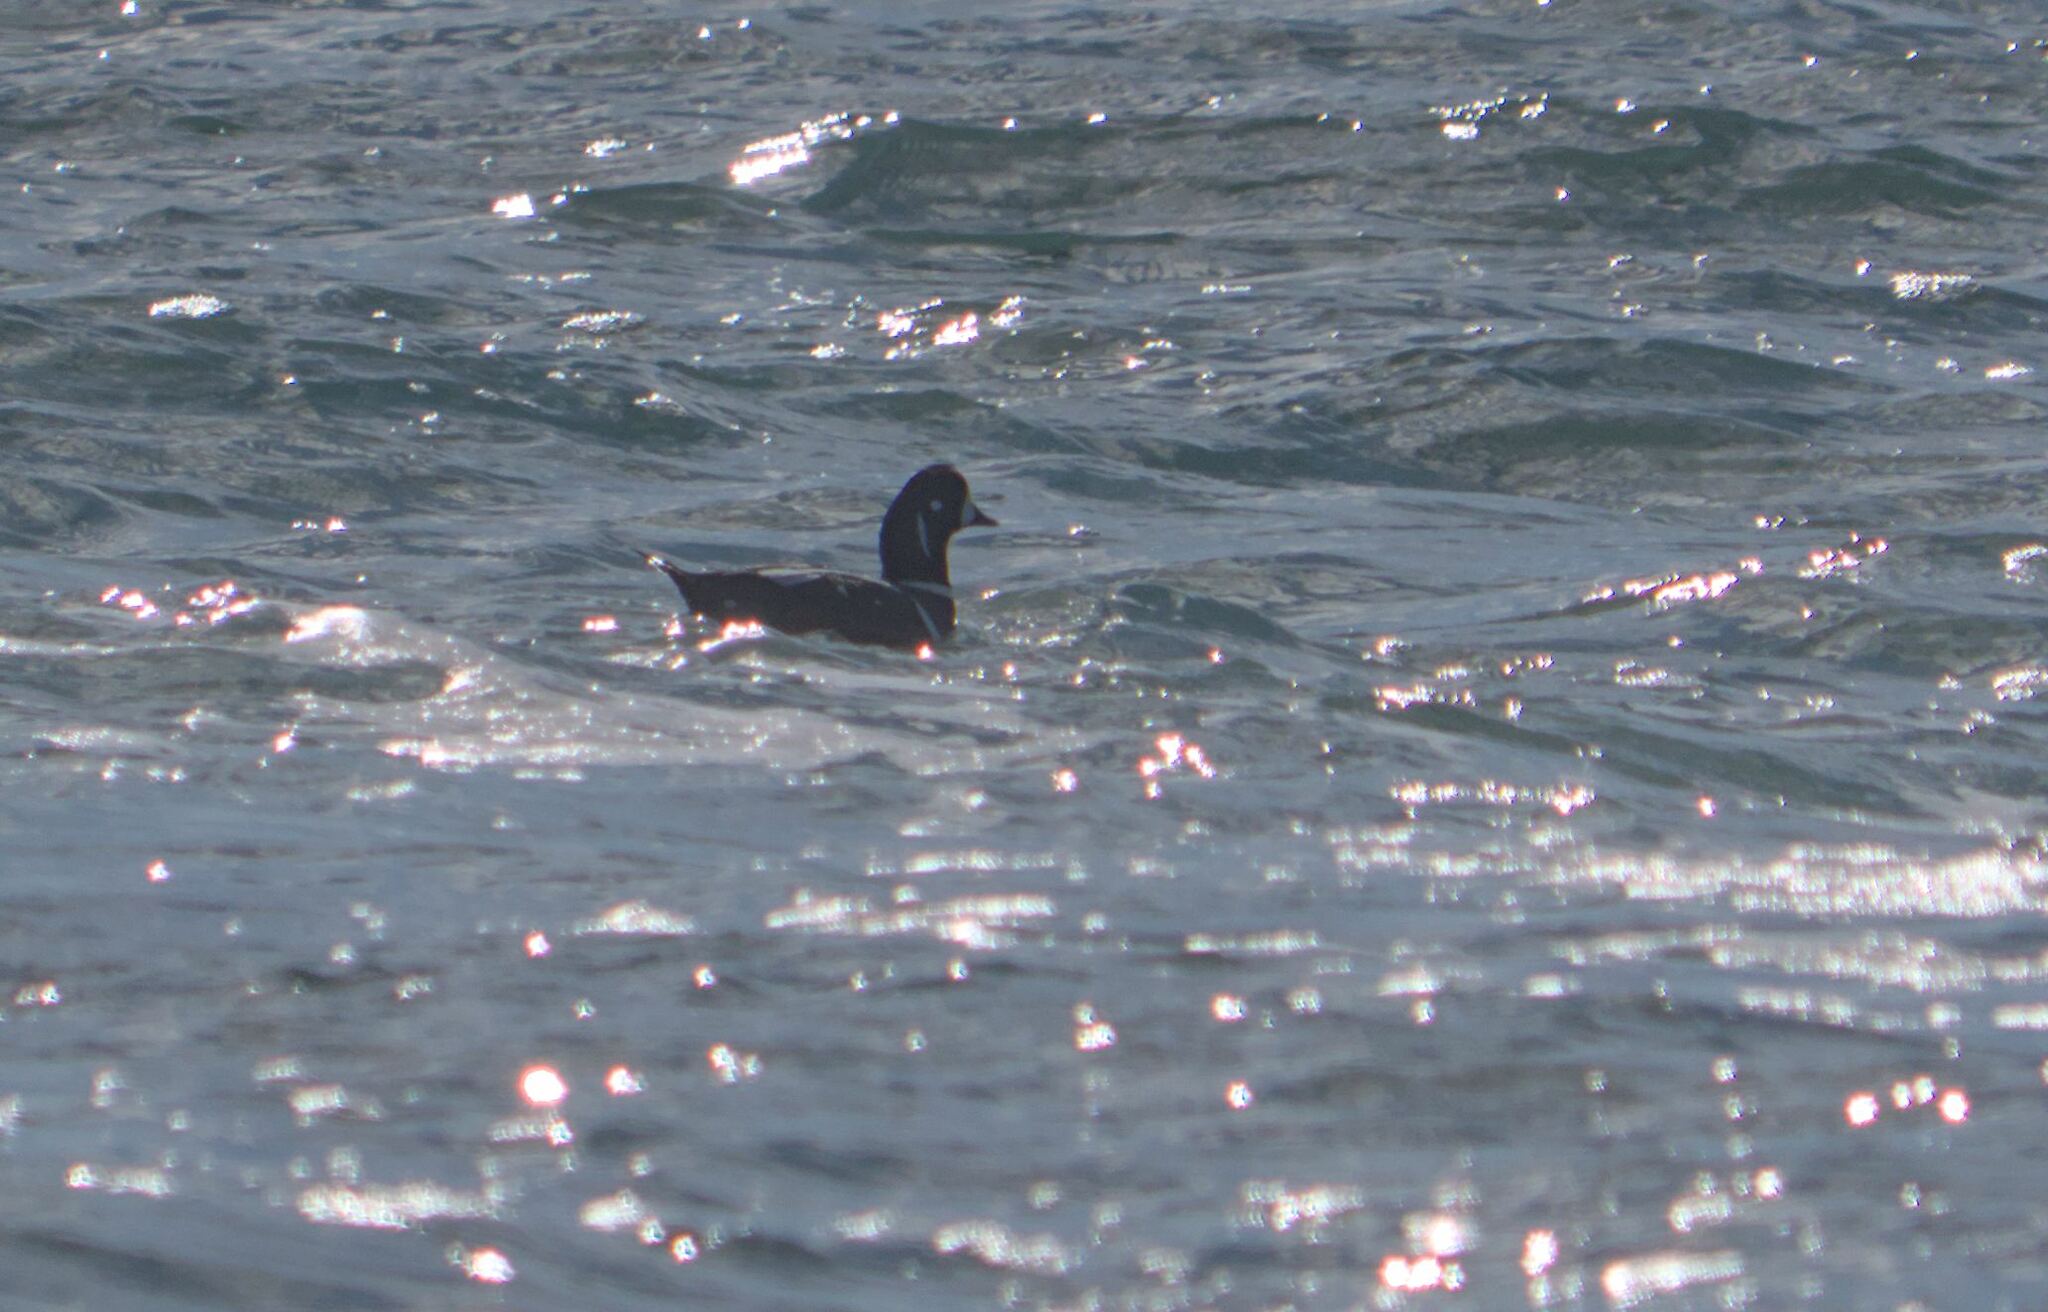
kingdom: Animalia
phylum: Chordata
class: Aves
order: Anseriformes
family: Anatidae
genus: Histrionicus
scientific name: Histrionicus histrionicus
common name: Harlequin duck
